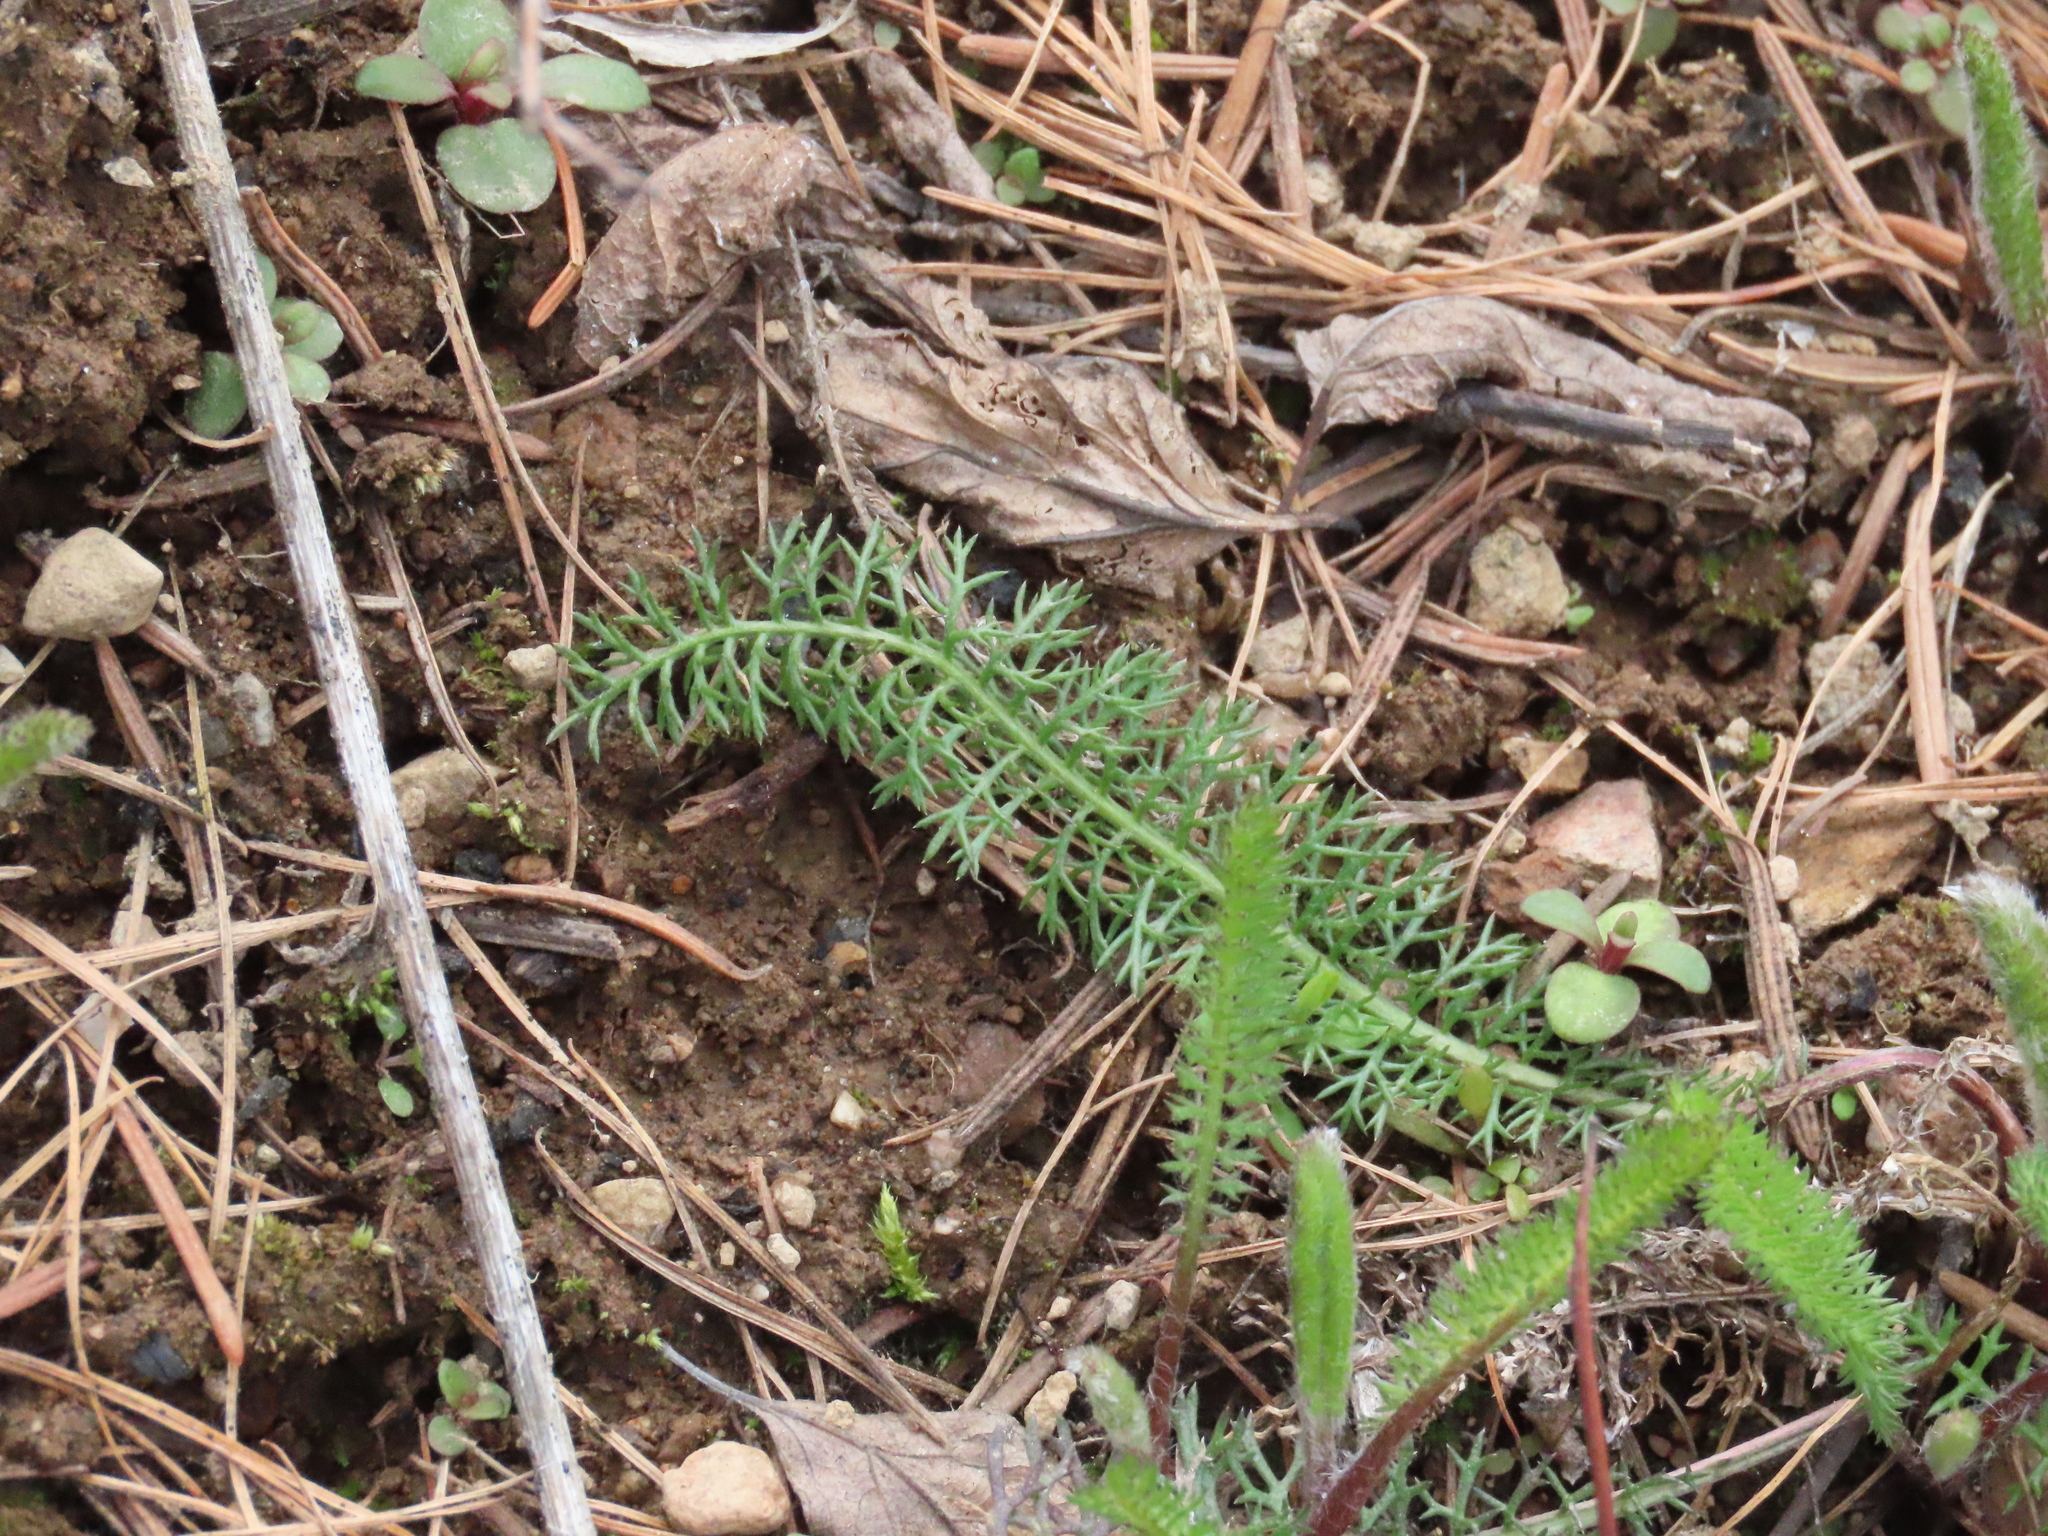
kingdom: Plantae
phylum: Tracheophyta
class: Magnoliopsida
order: Asterales
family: Asteraceae
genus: Achillea
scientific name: Achillea millefolium
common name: Yarrow
